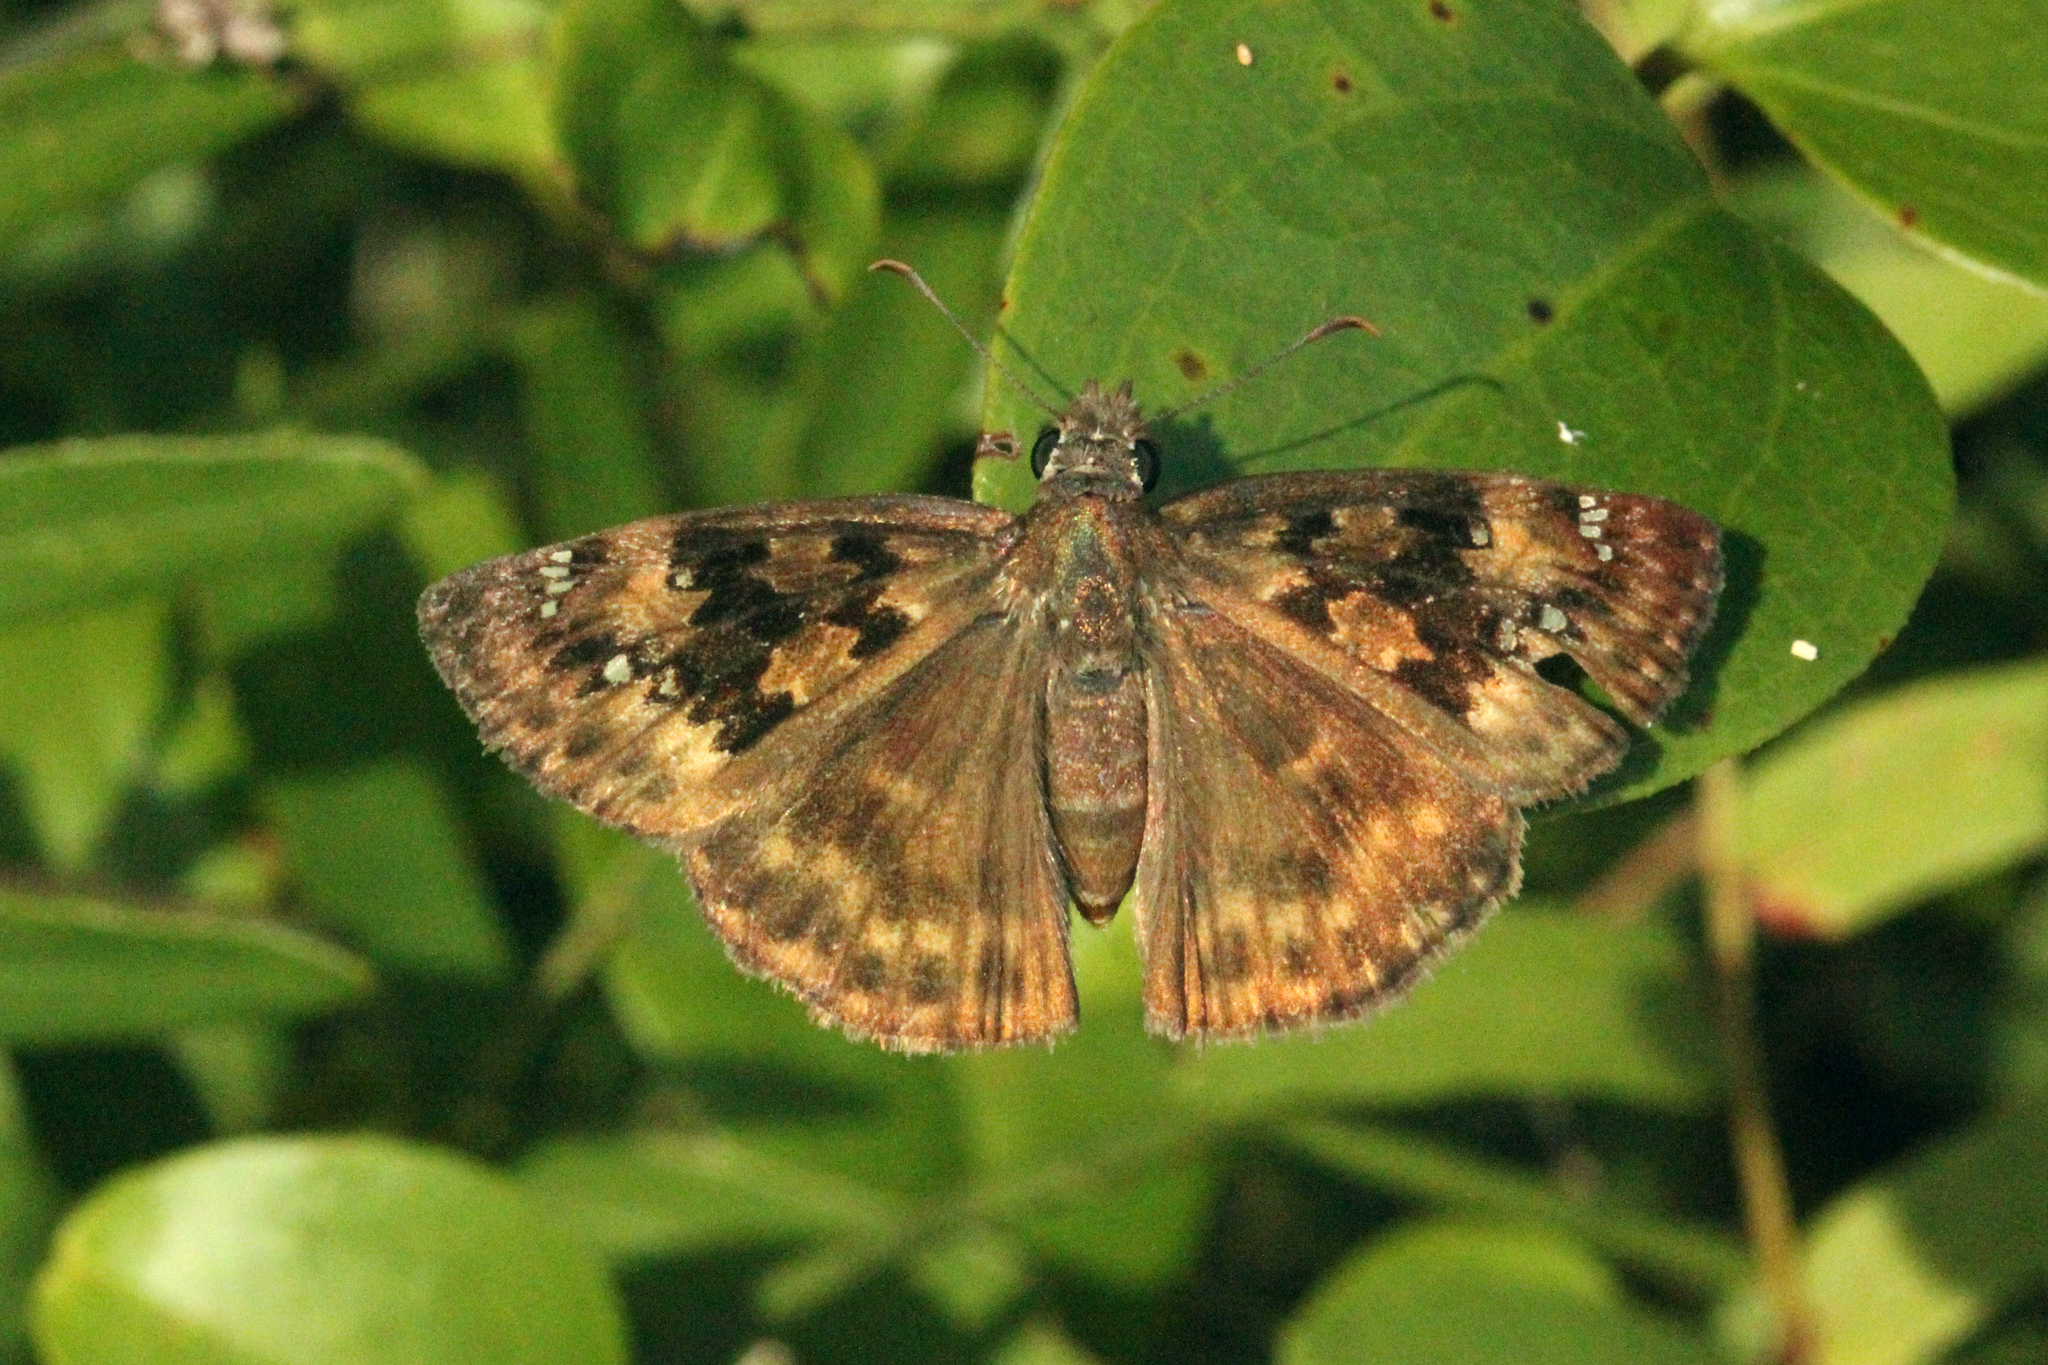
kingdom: Animalia
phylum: Arthropoda
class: Insecta
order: Lepidoptera
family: Hesperiidae
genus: Erynnis
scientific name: Erynnis horatius
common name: Horace's duskywing
